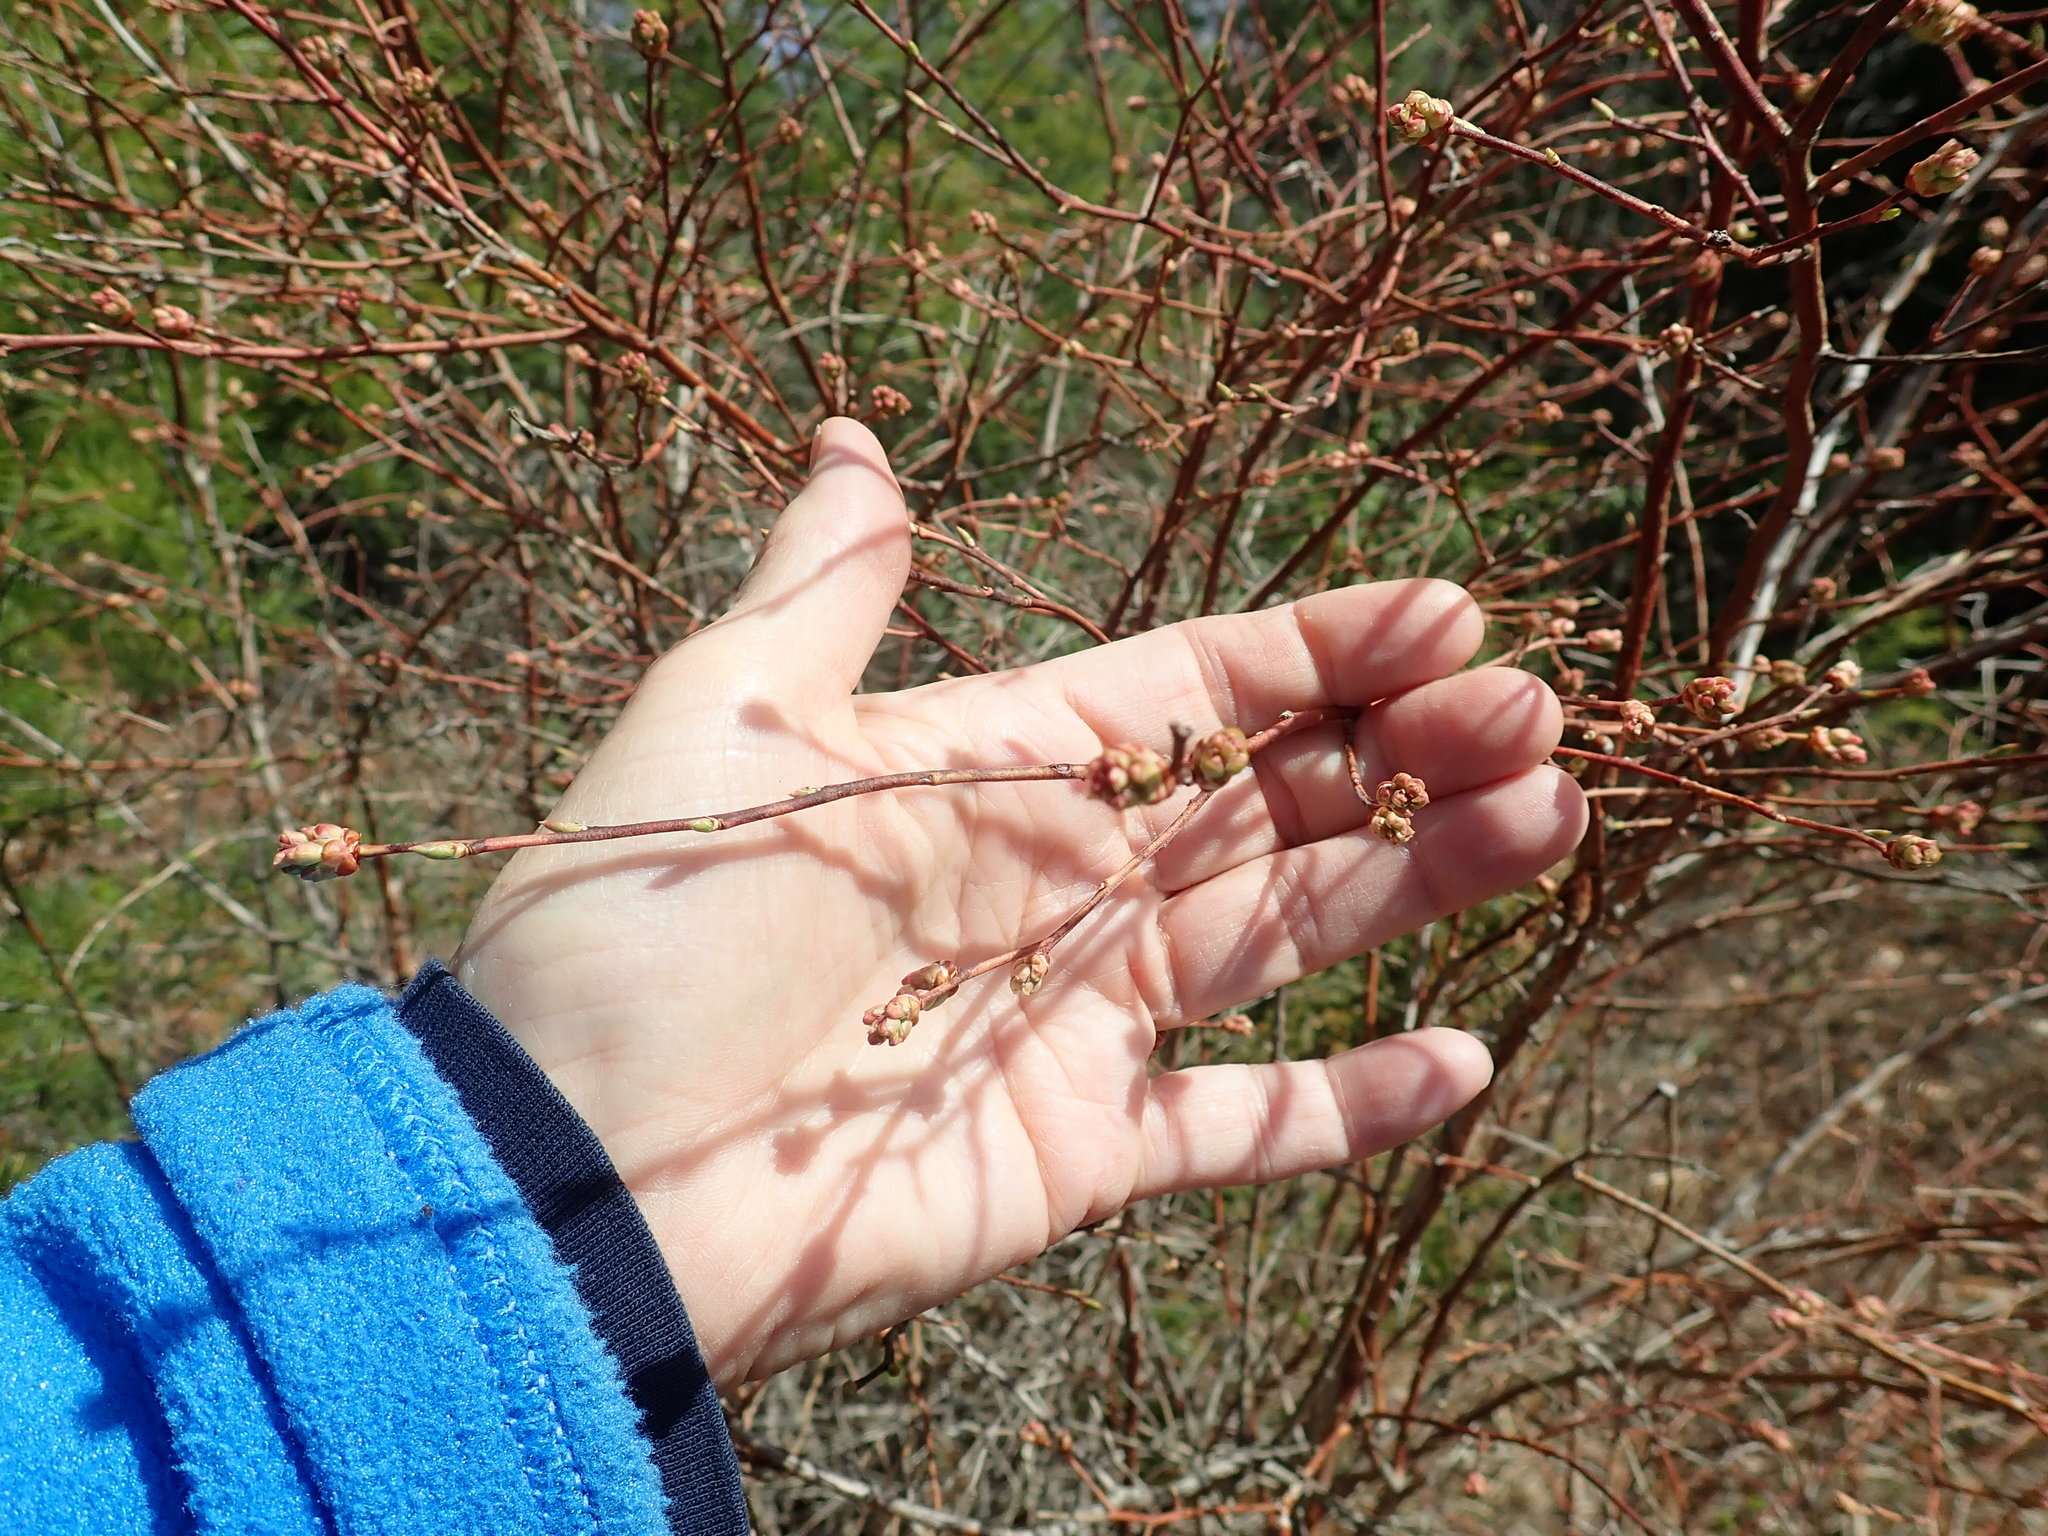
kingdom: Plantae
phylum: Tracheophyta
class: Magnoliopsida
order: Ericales
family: Ericaceae
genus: Vaccinium
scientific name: Vaccinium corymbosum
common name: Blueberry
